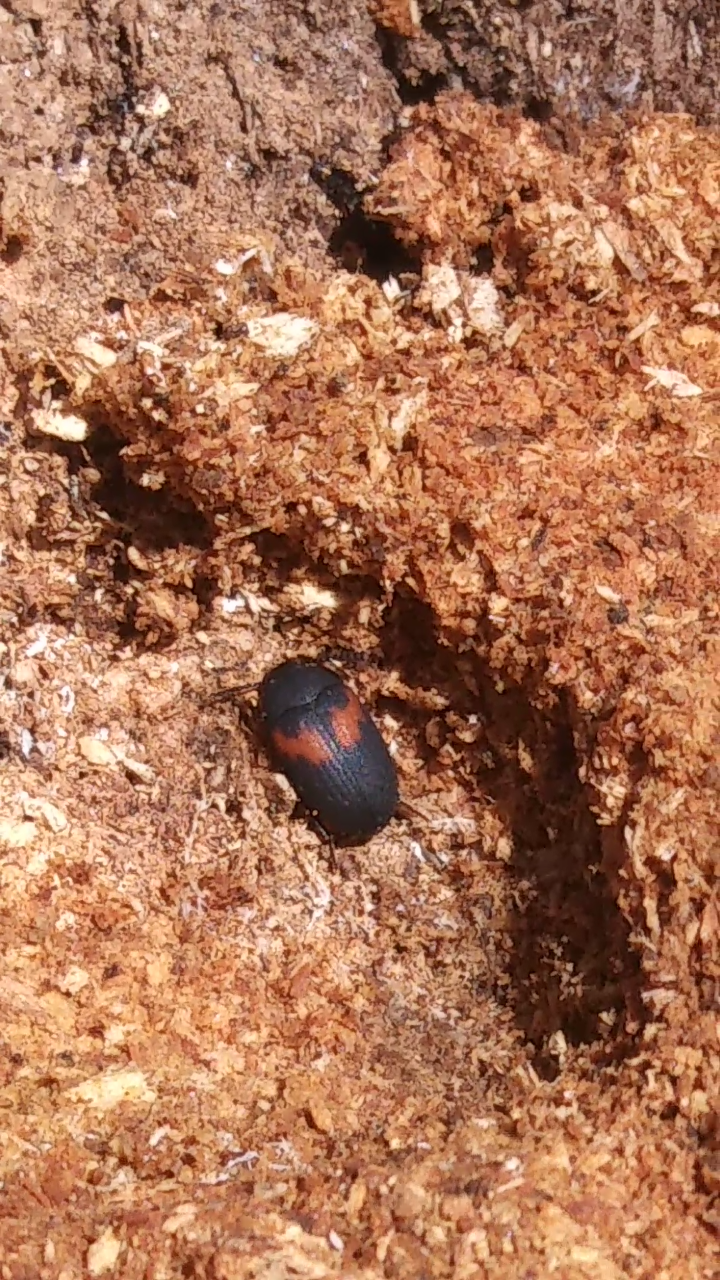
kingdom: Animalia
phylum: Arthropoda
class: Insecta
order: Coleoptera
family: Tenebrionidae
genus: Platydema
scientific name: Platydema elliptica
